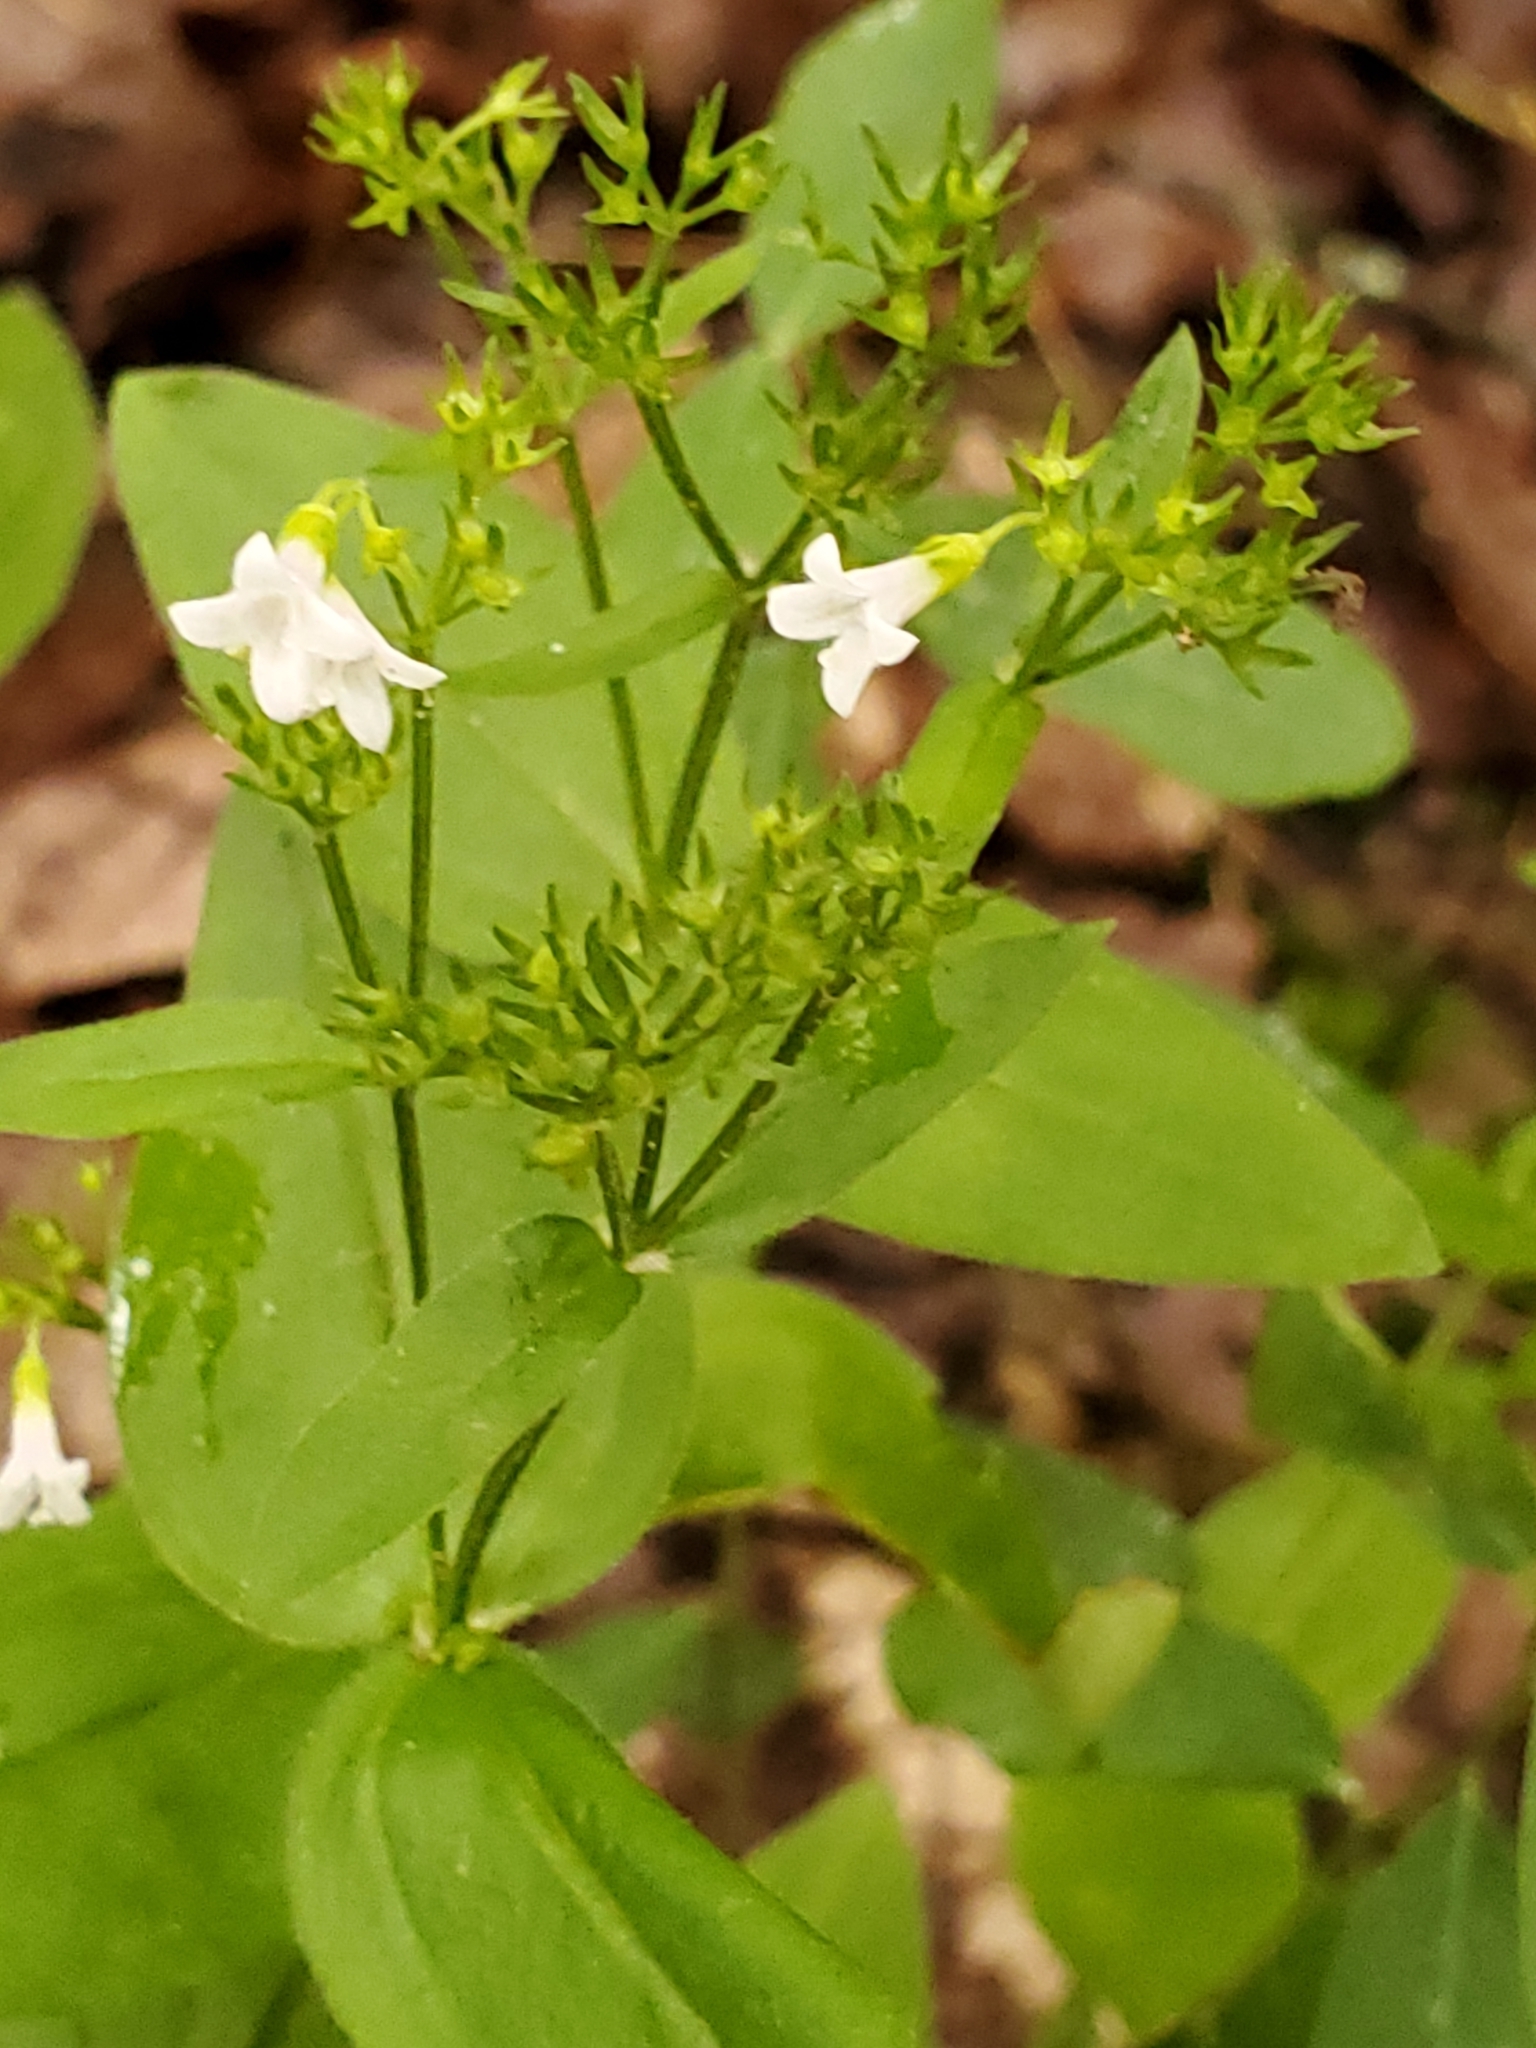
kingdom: Plantae
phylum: Tracheophyta
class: Magnoliopsida
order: Gentianales
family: Rubiaceae
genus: Houstonia
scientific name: Houstonia purpurea
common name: Summer bluet
